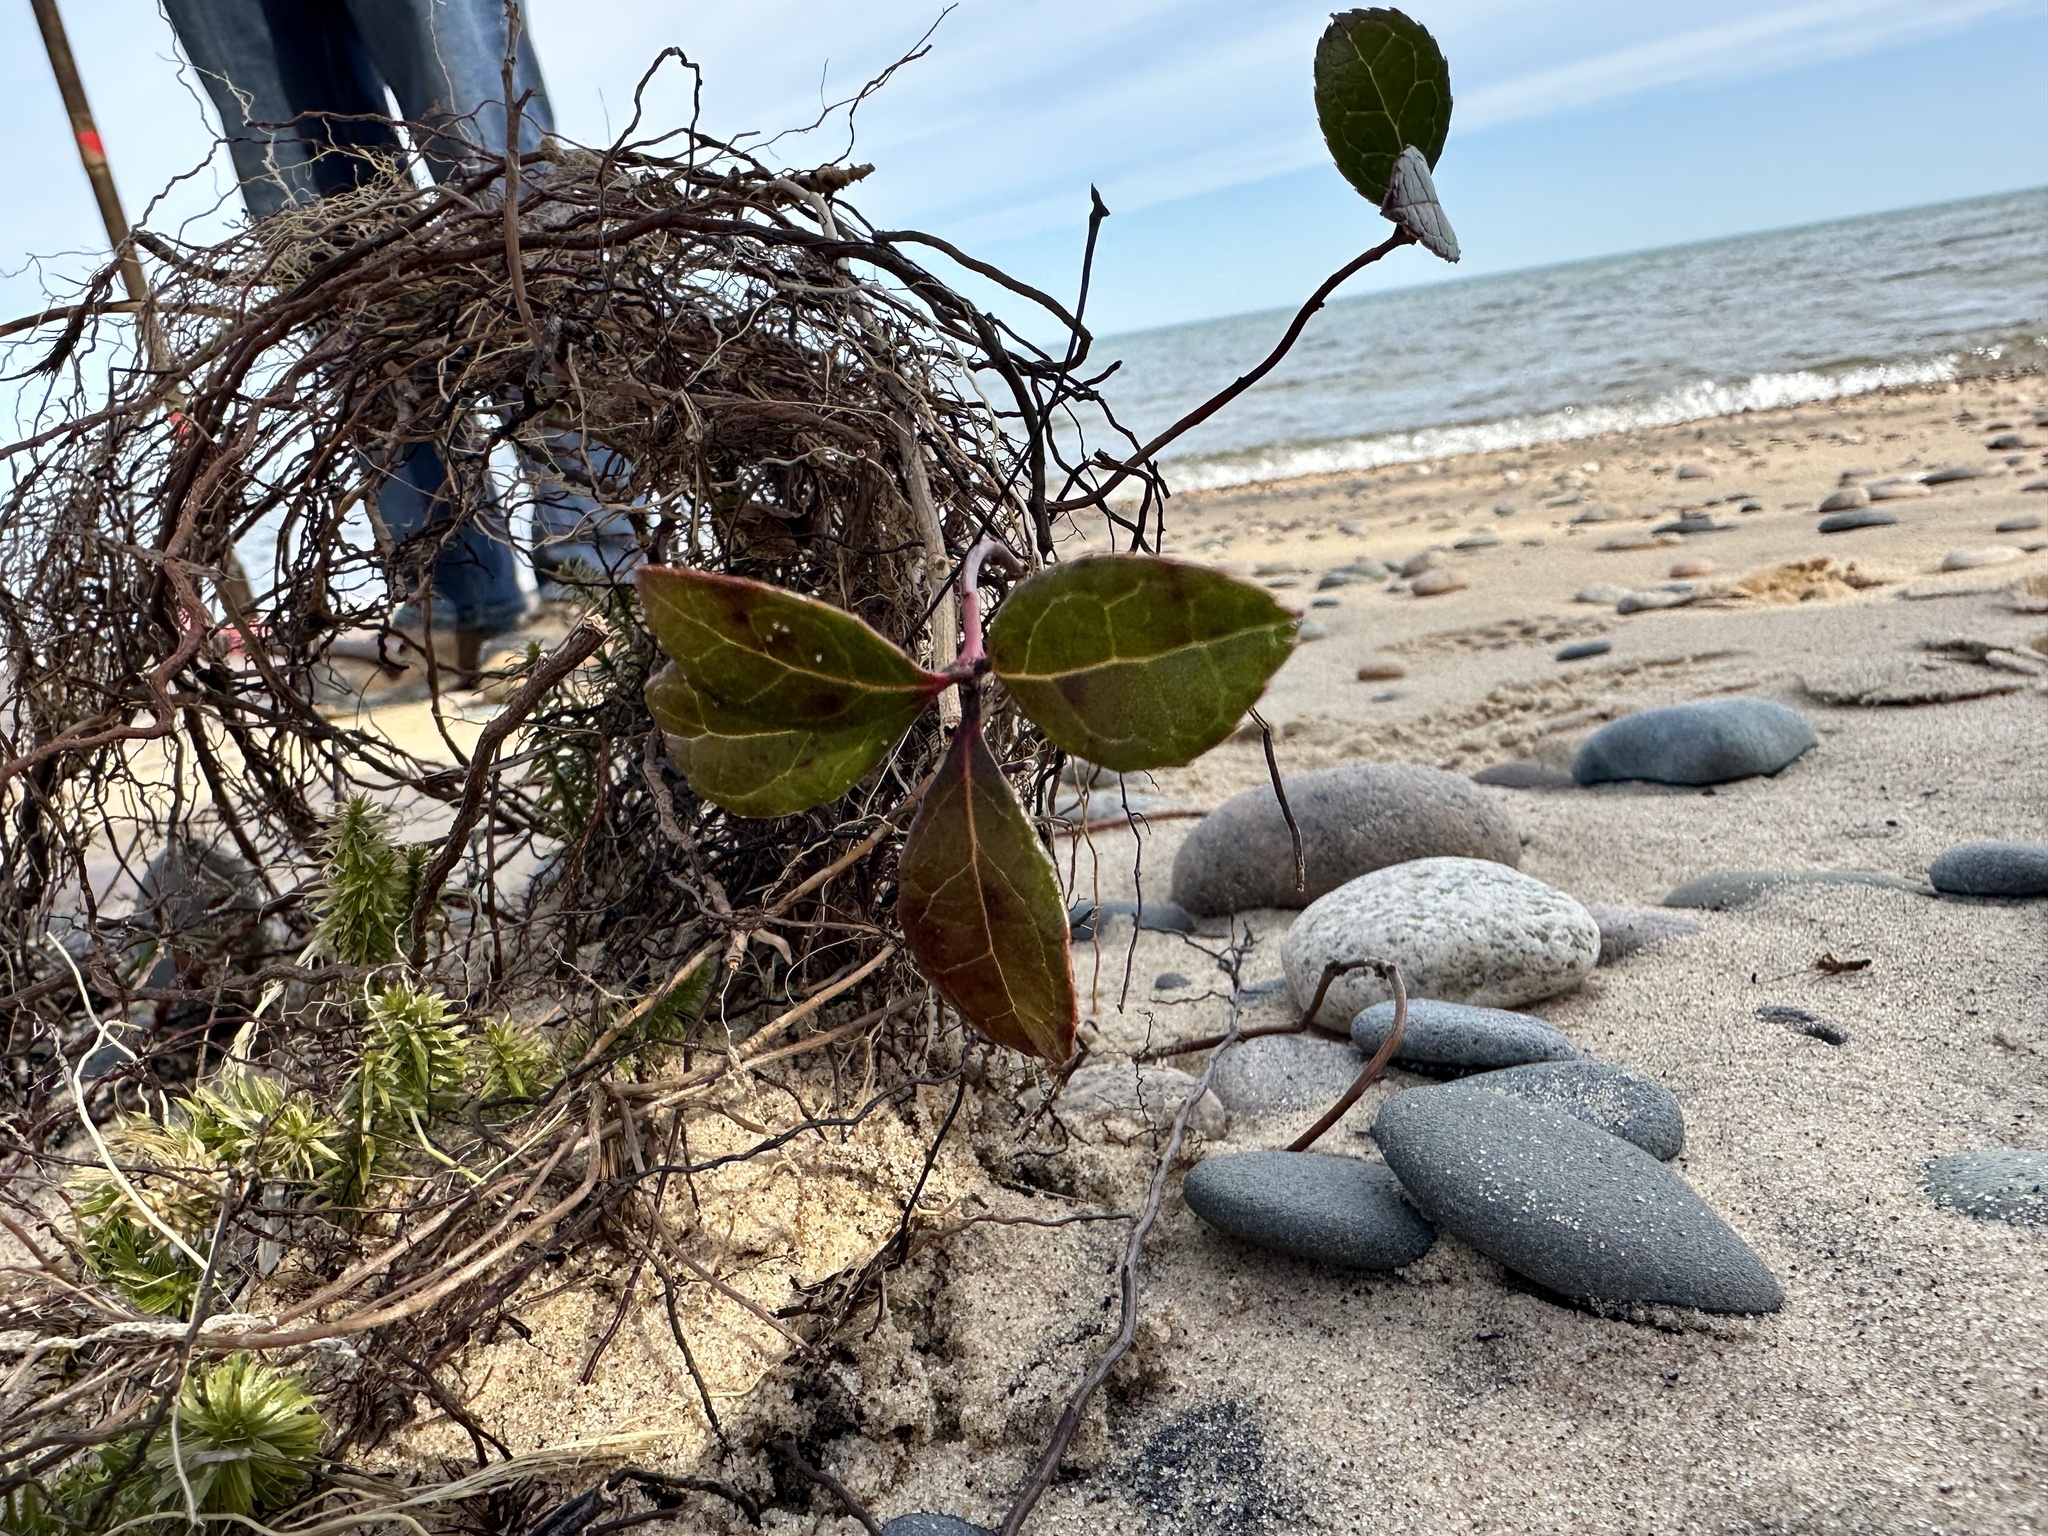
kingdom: Plantae
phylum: Tracheophyta
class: Magnoliopsida
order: Ericales
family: Ericaceae
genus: Gaultheria
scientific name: Gaultheria procumbens
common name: Checkerberry
